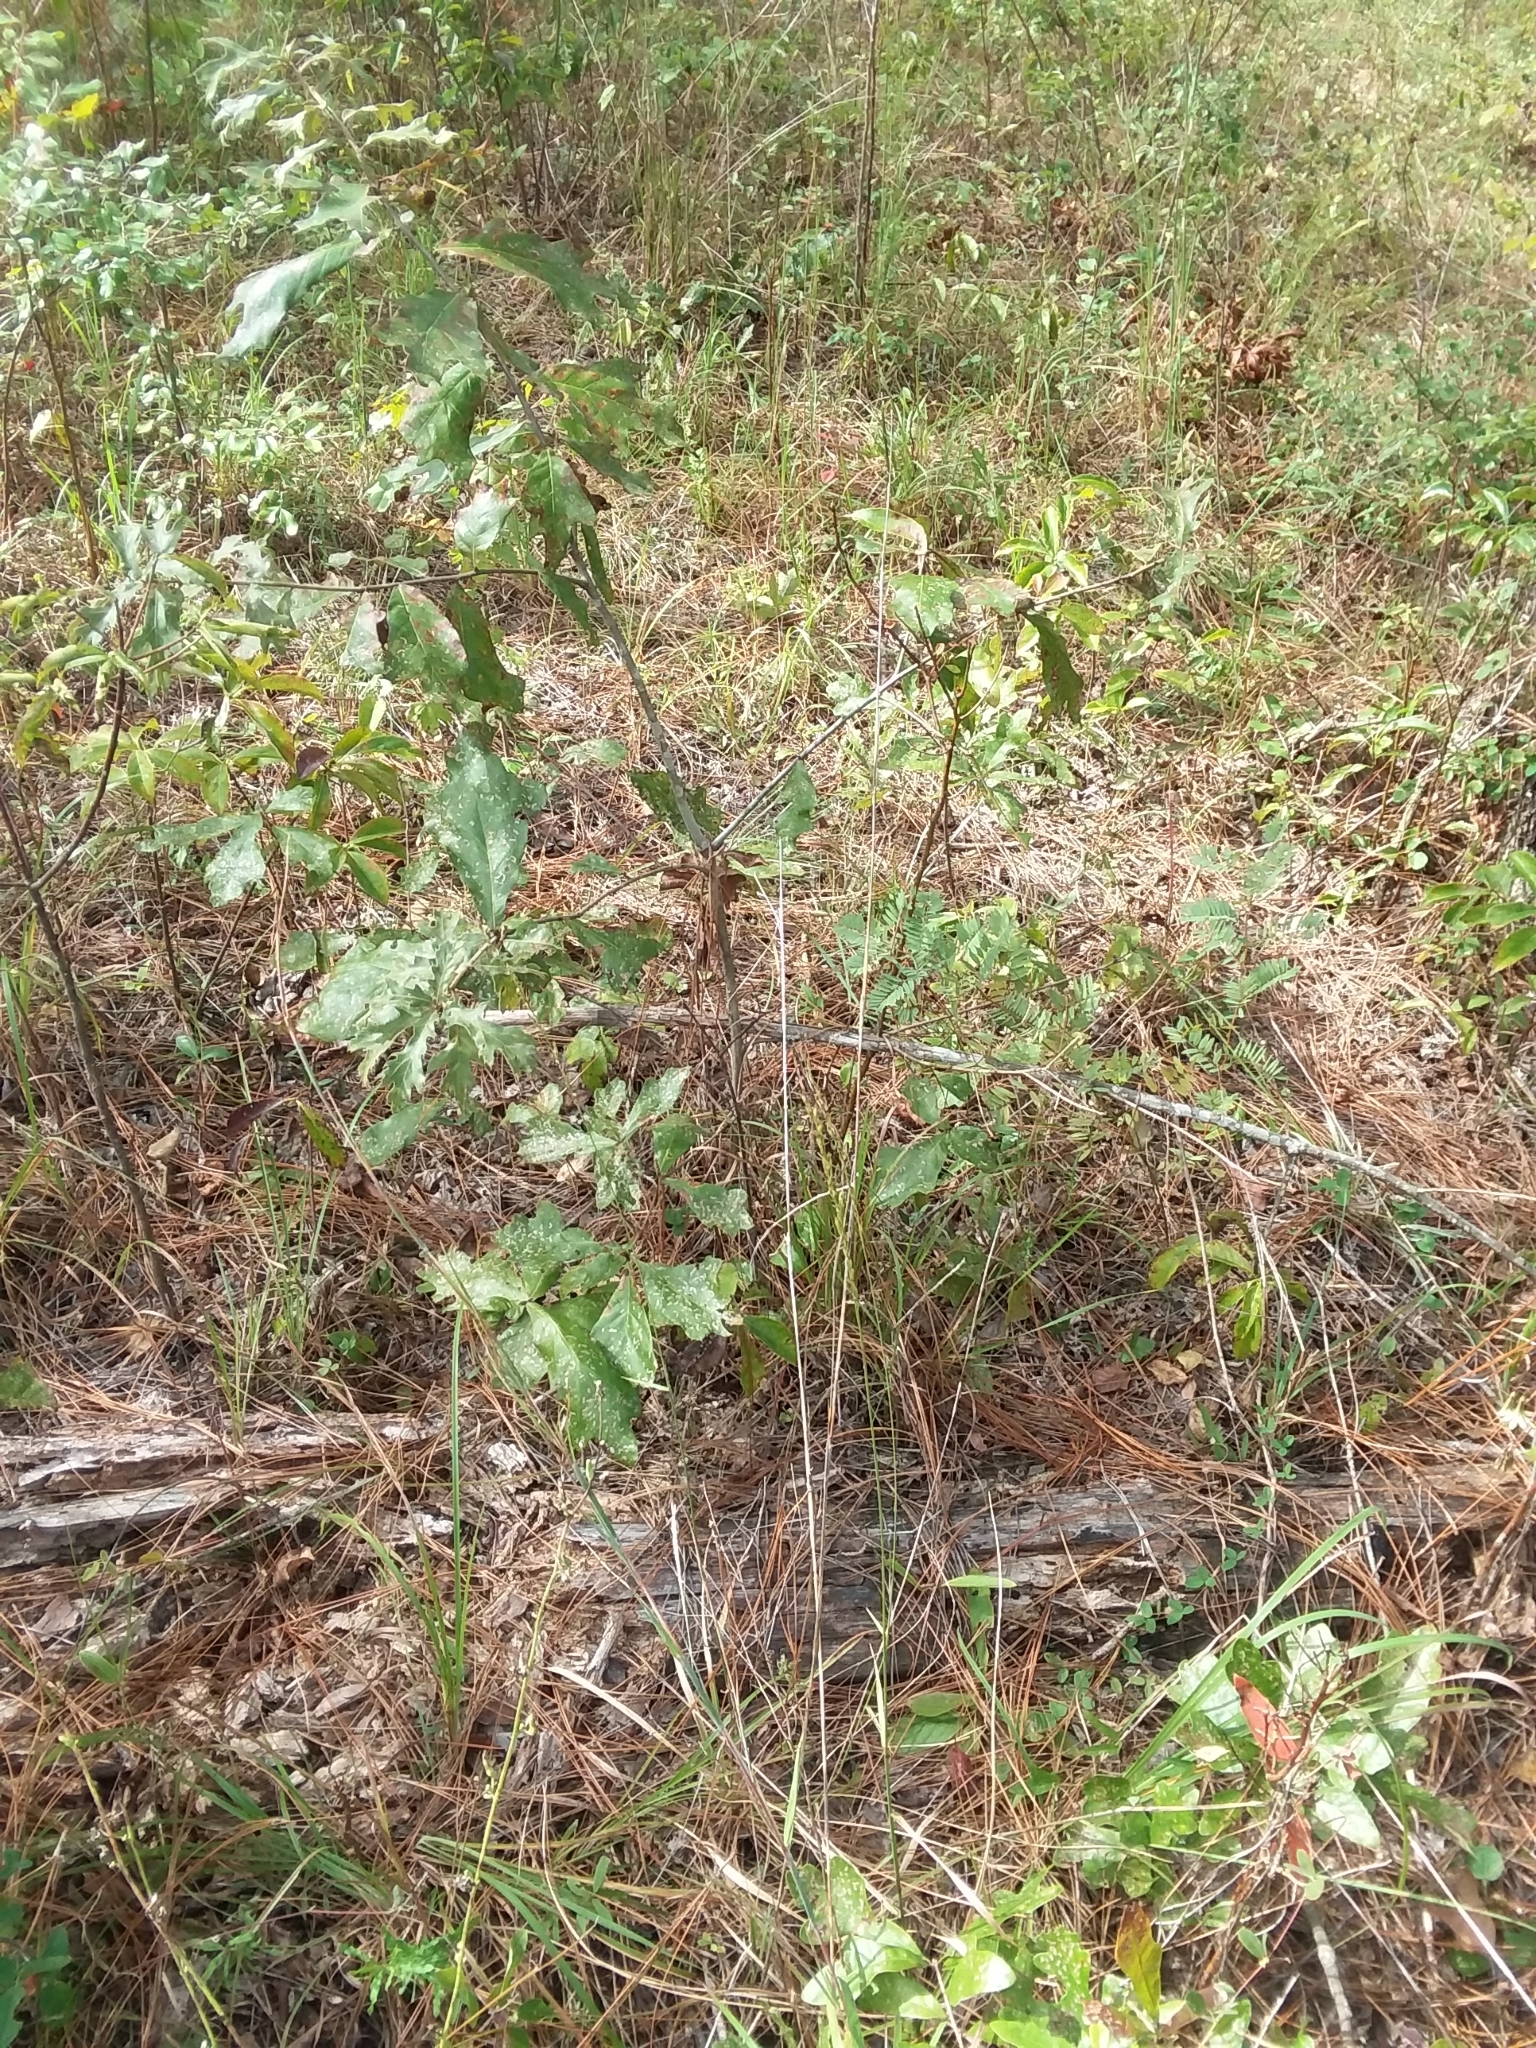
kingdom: Plantae
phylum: Tracheophyta
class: Liliopsida
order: Poales
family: Poaceae
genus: Tridens
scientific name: Tridens carolinianus
